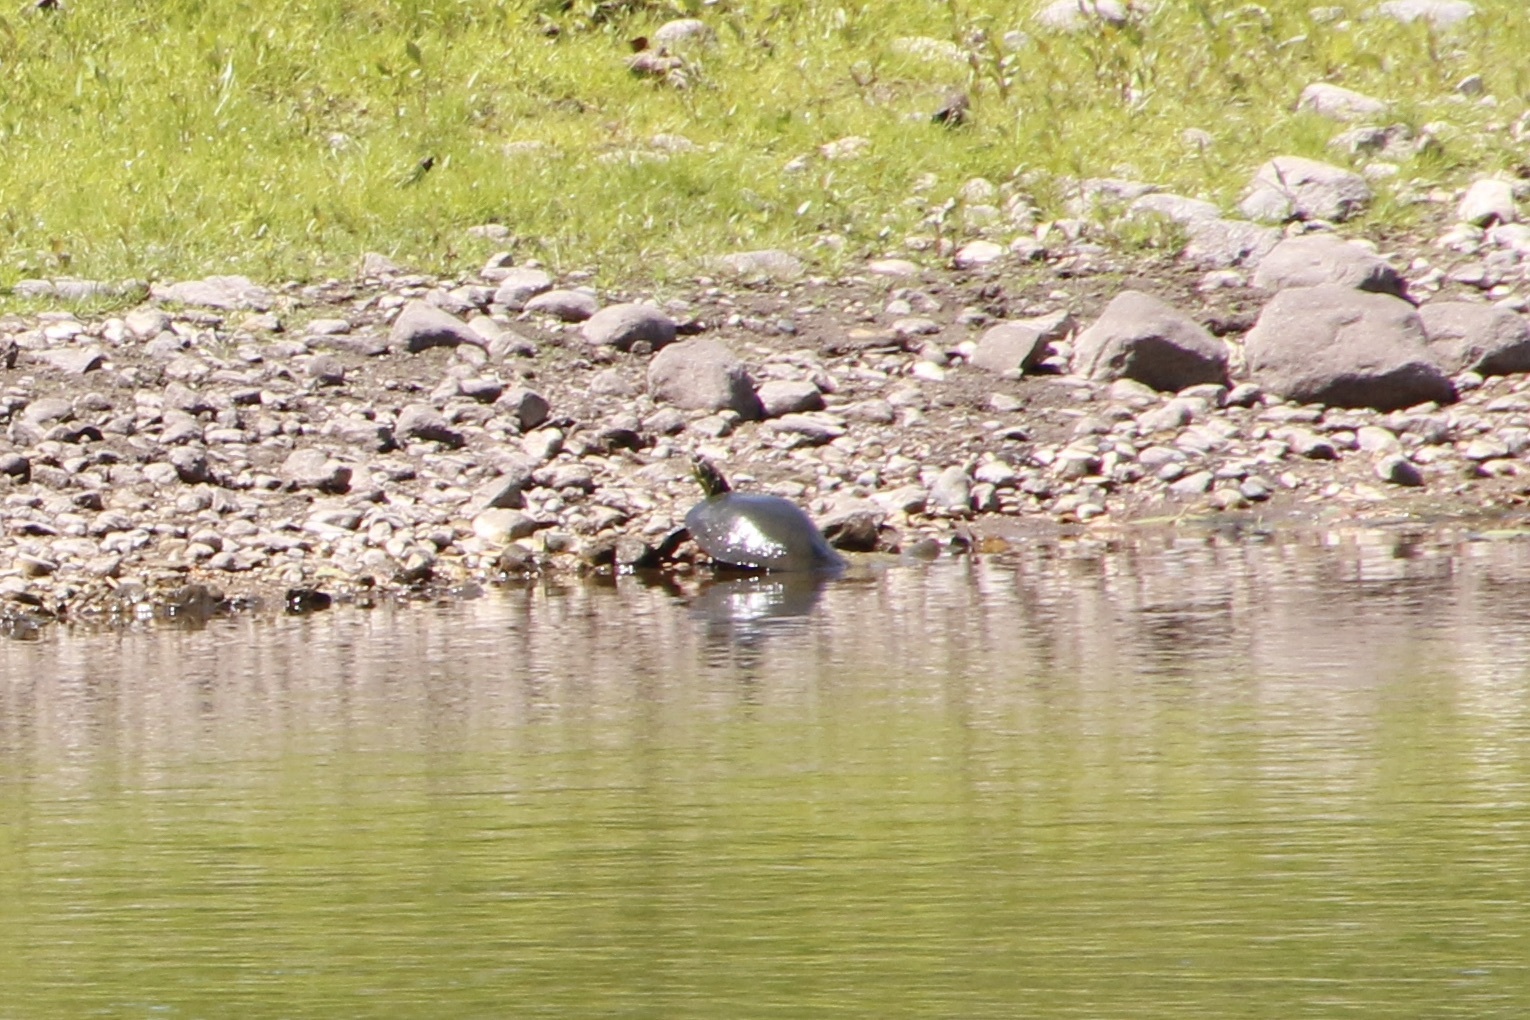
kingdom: Animalia
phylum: Chordata
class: Testudines
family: Emydidae
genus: Chrysemys
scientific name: Chrysemys picta
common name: Painted turtle
